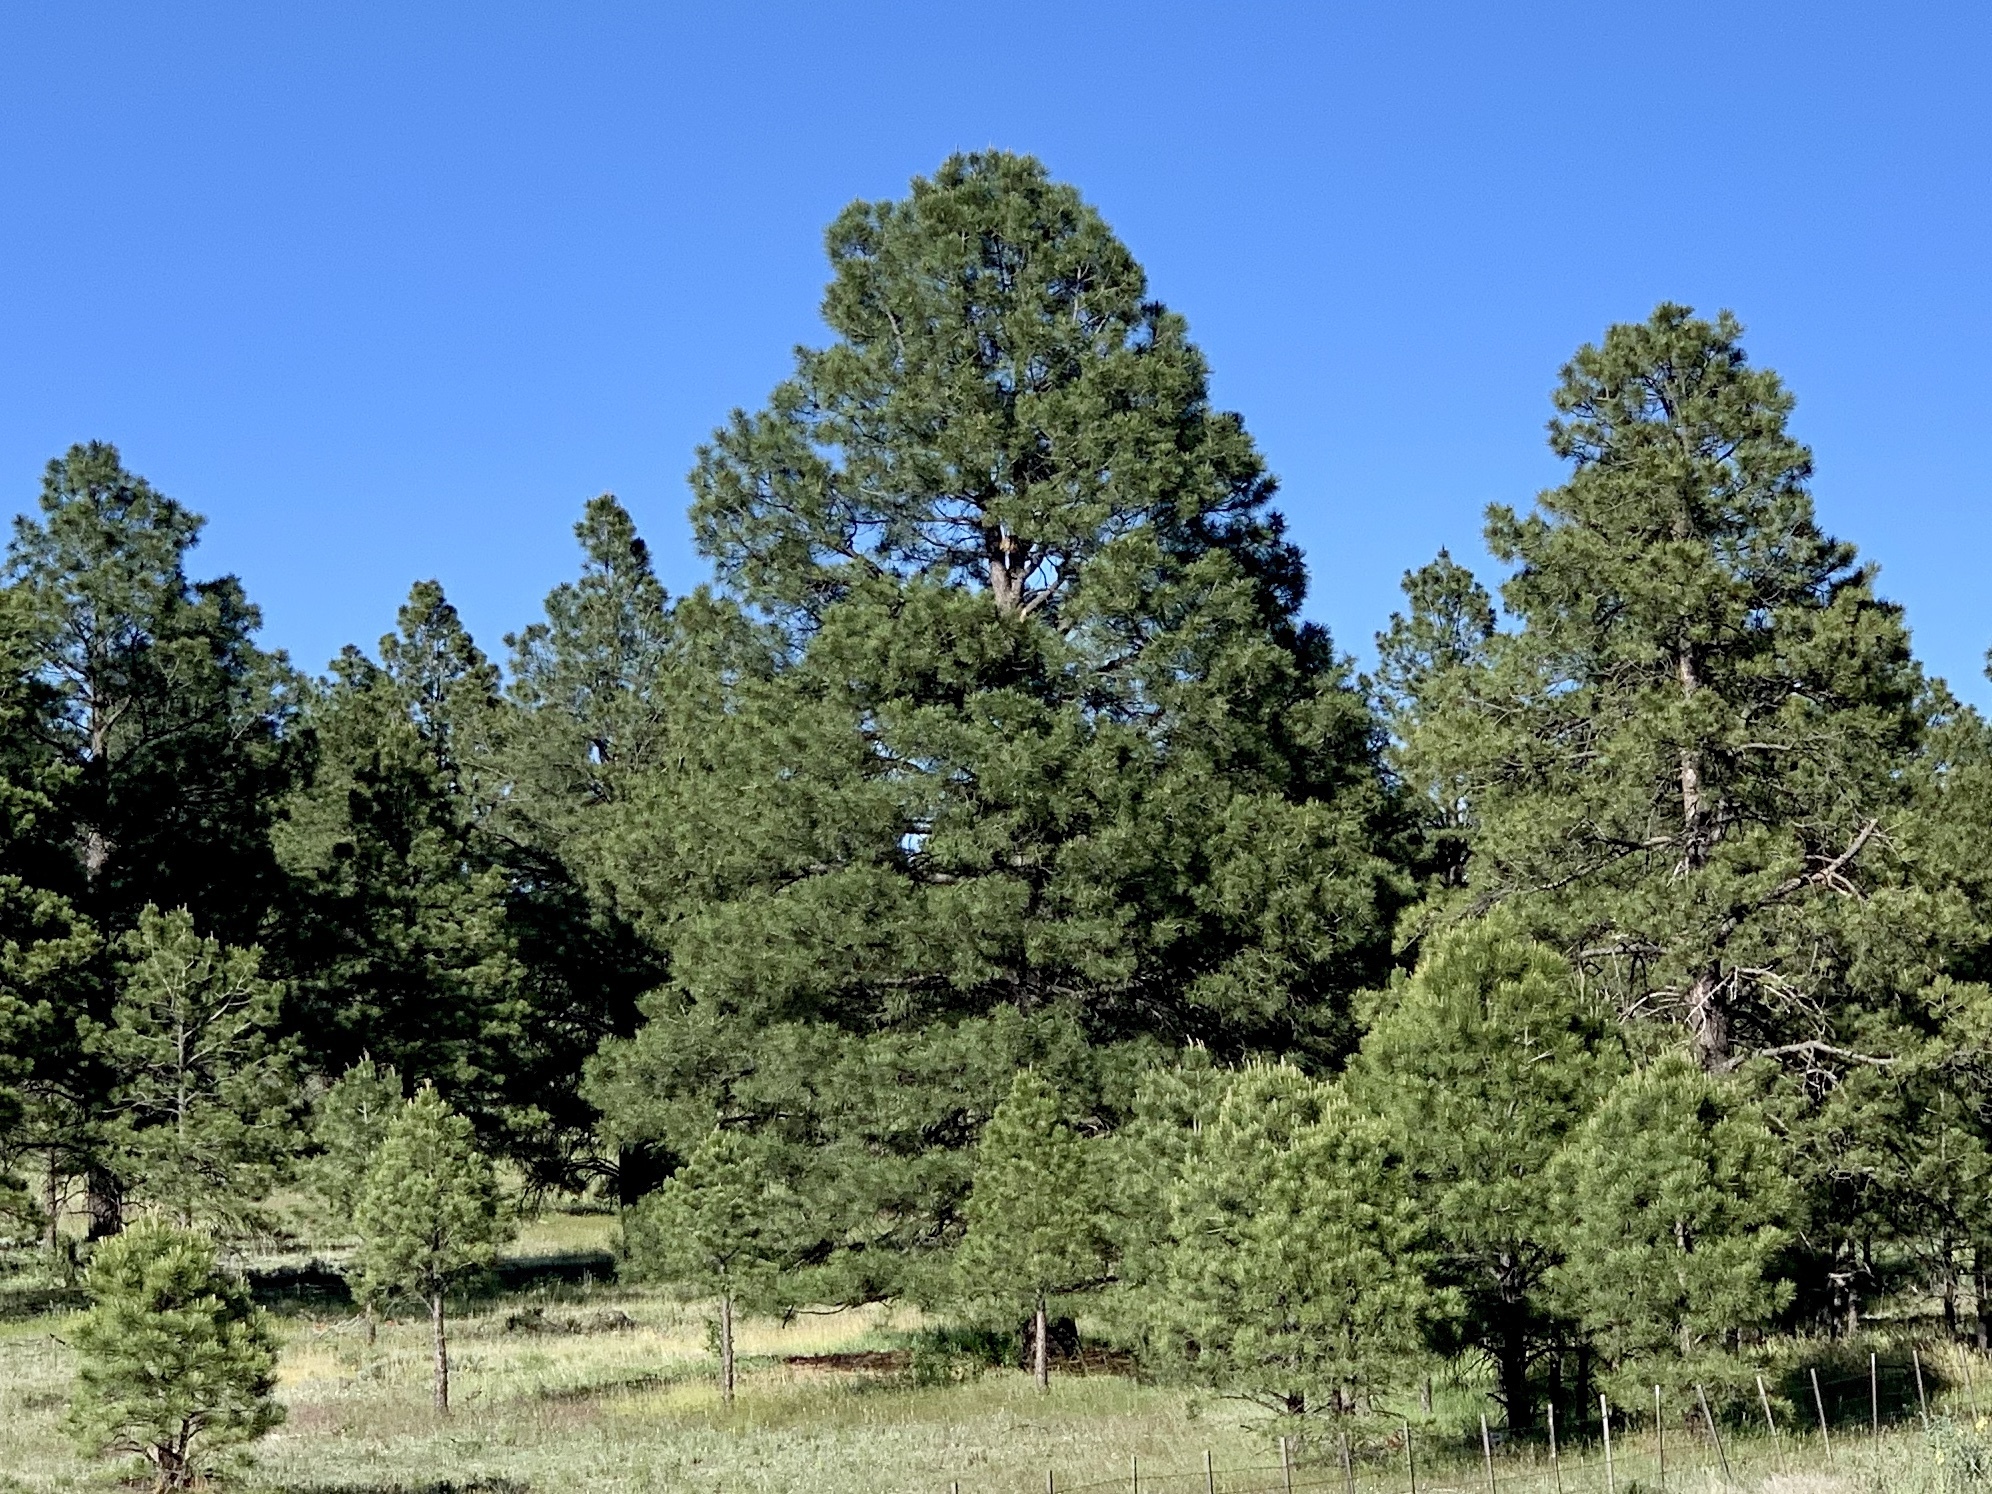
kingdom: Plantae
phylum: Tracheophyta
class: Pinopsida
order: Pinales
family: Pinaceae
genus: Pinus
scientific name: Pinus ponderosa
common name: Western yellow-pine
